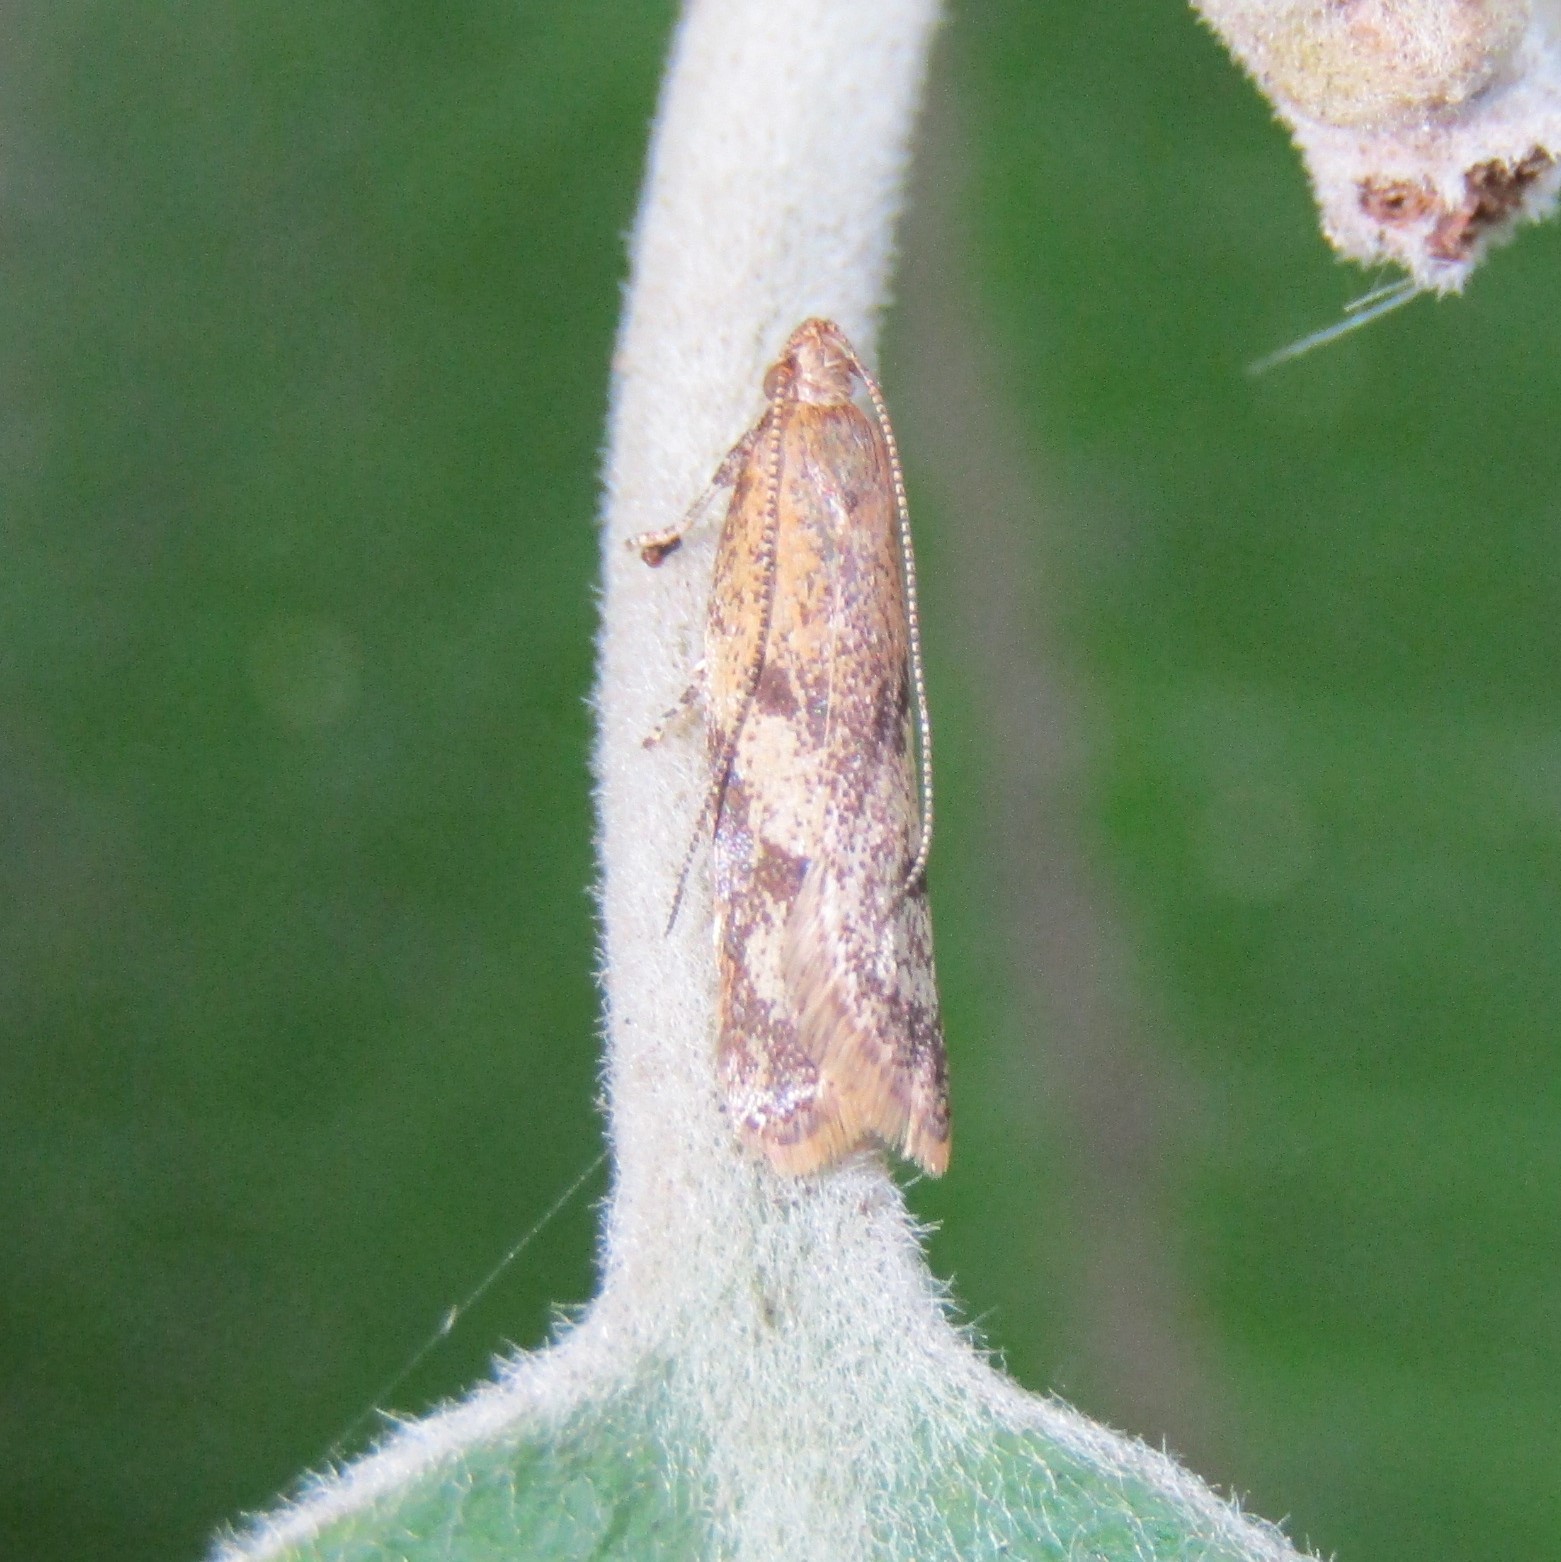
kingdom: Animalia
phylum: Arthropoda
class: Insecta
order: Lepidoptera
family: Oecophoridae
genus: Gymnobathra
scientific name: Gymnobathra tholodella
